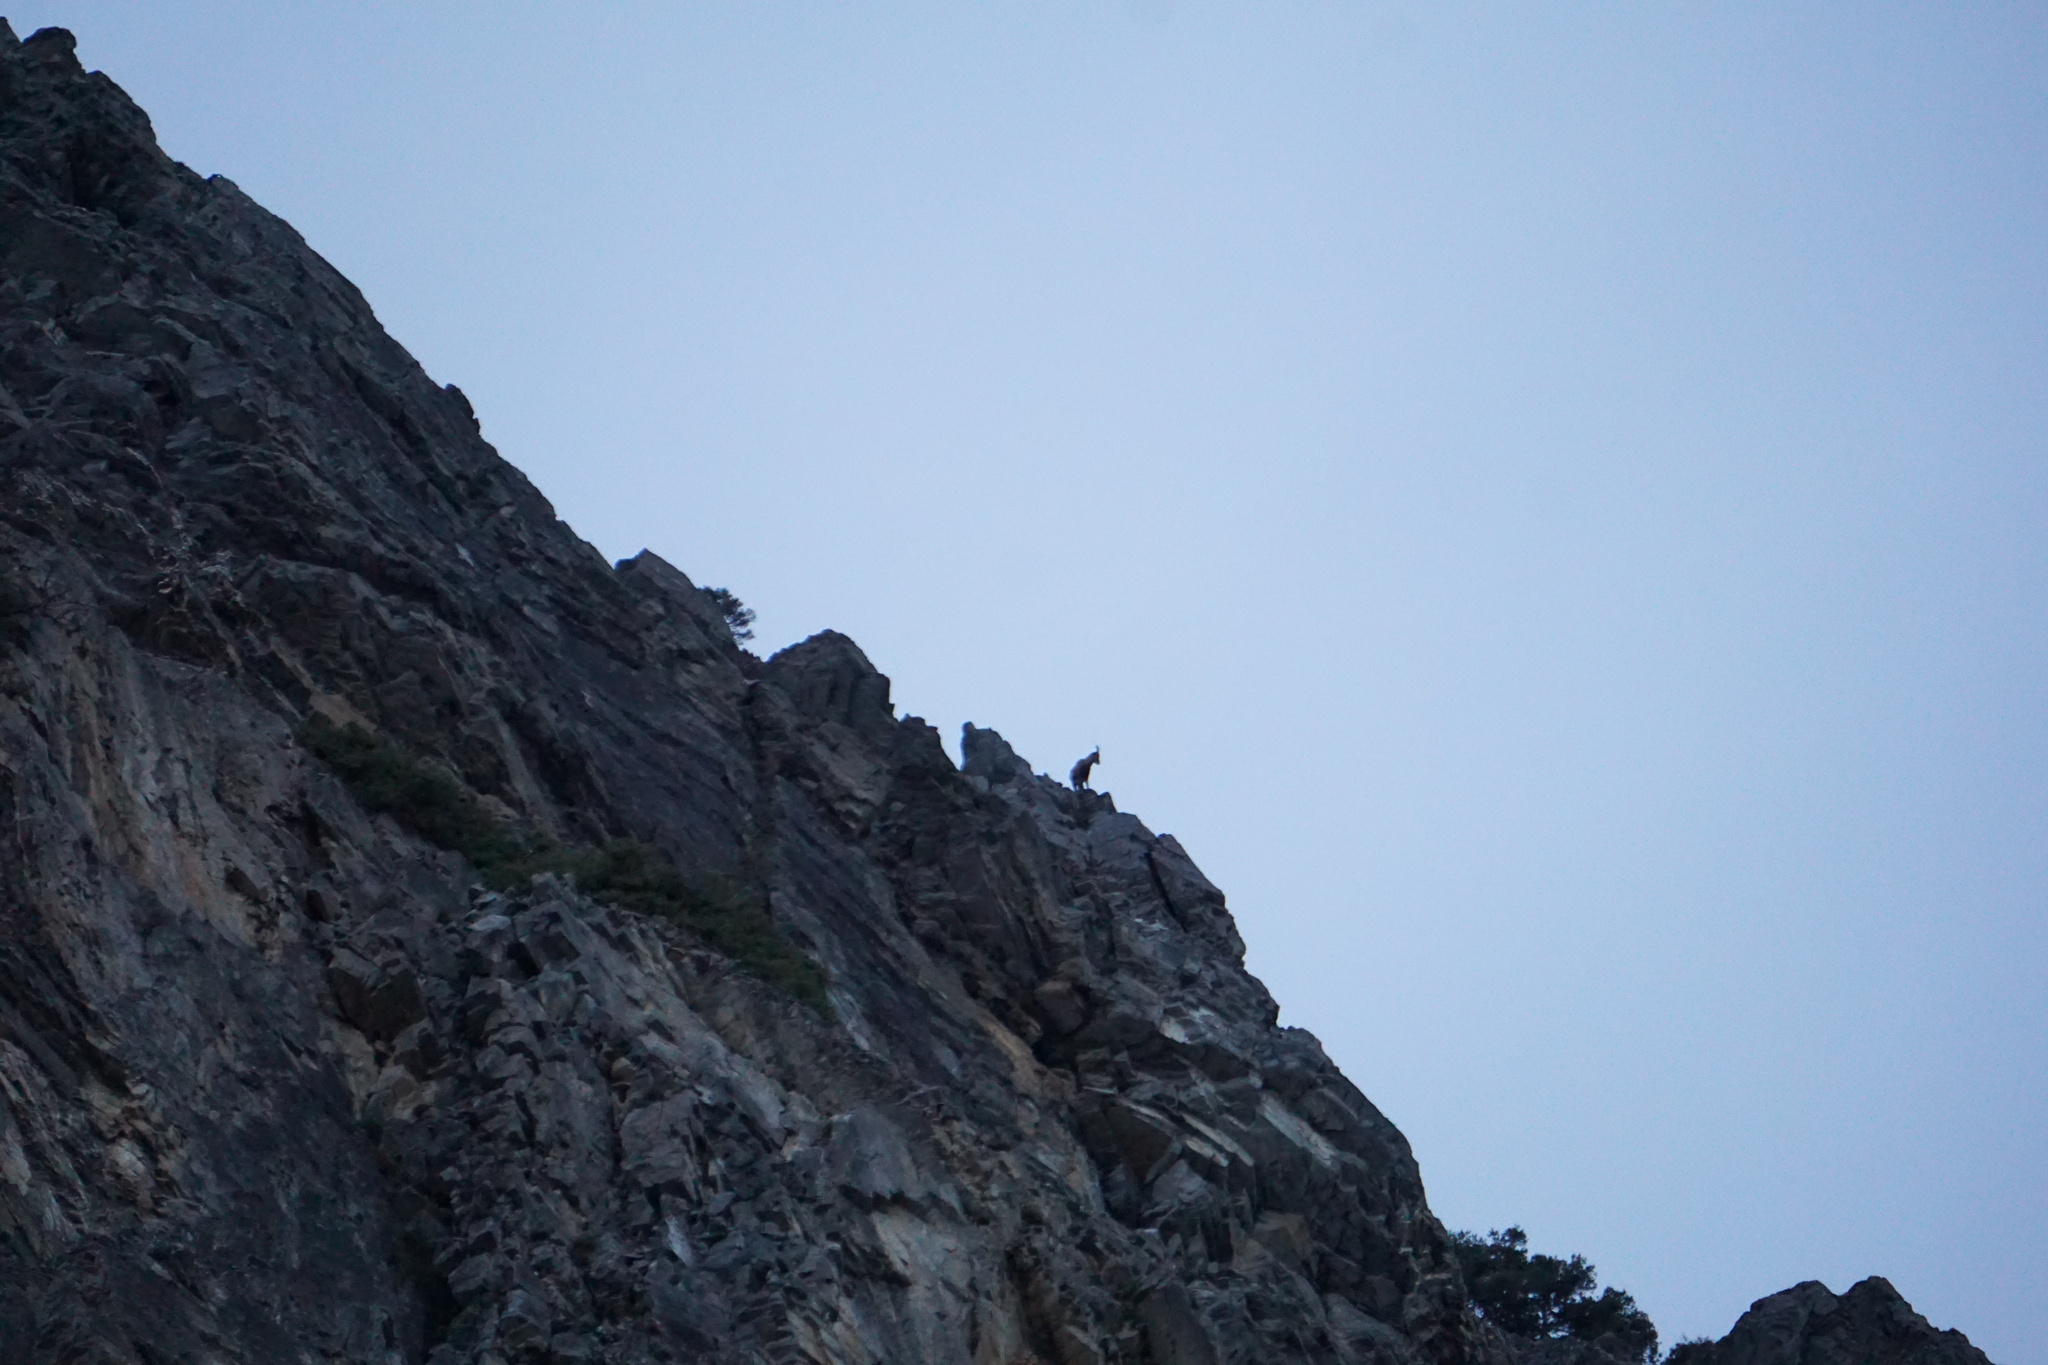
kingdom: Animalia
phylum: Chordata
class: Mammalia
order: Artiodactyla
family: Bovidae
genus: Capra
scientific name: Capra ibex
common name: Alpine ibex
